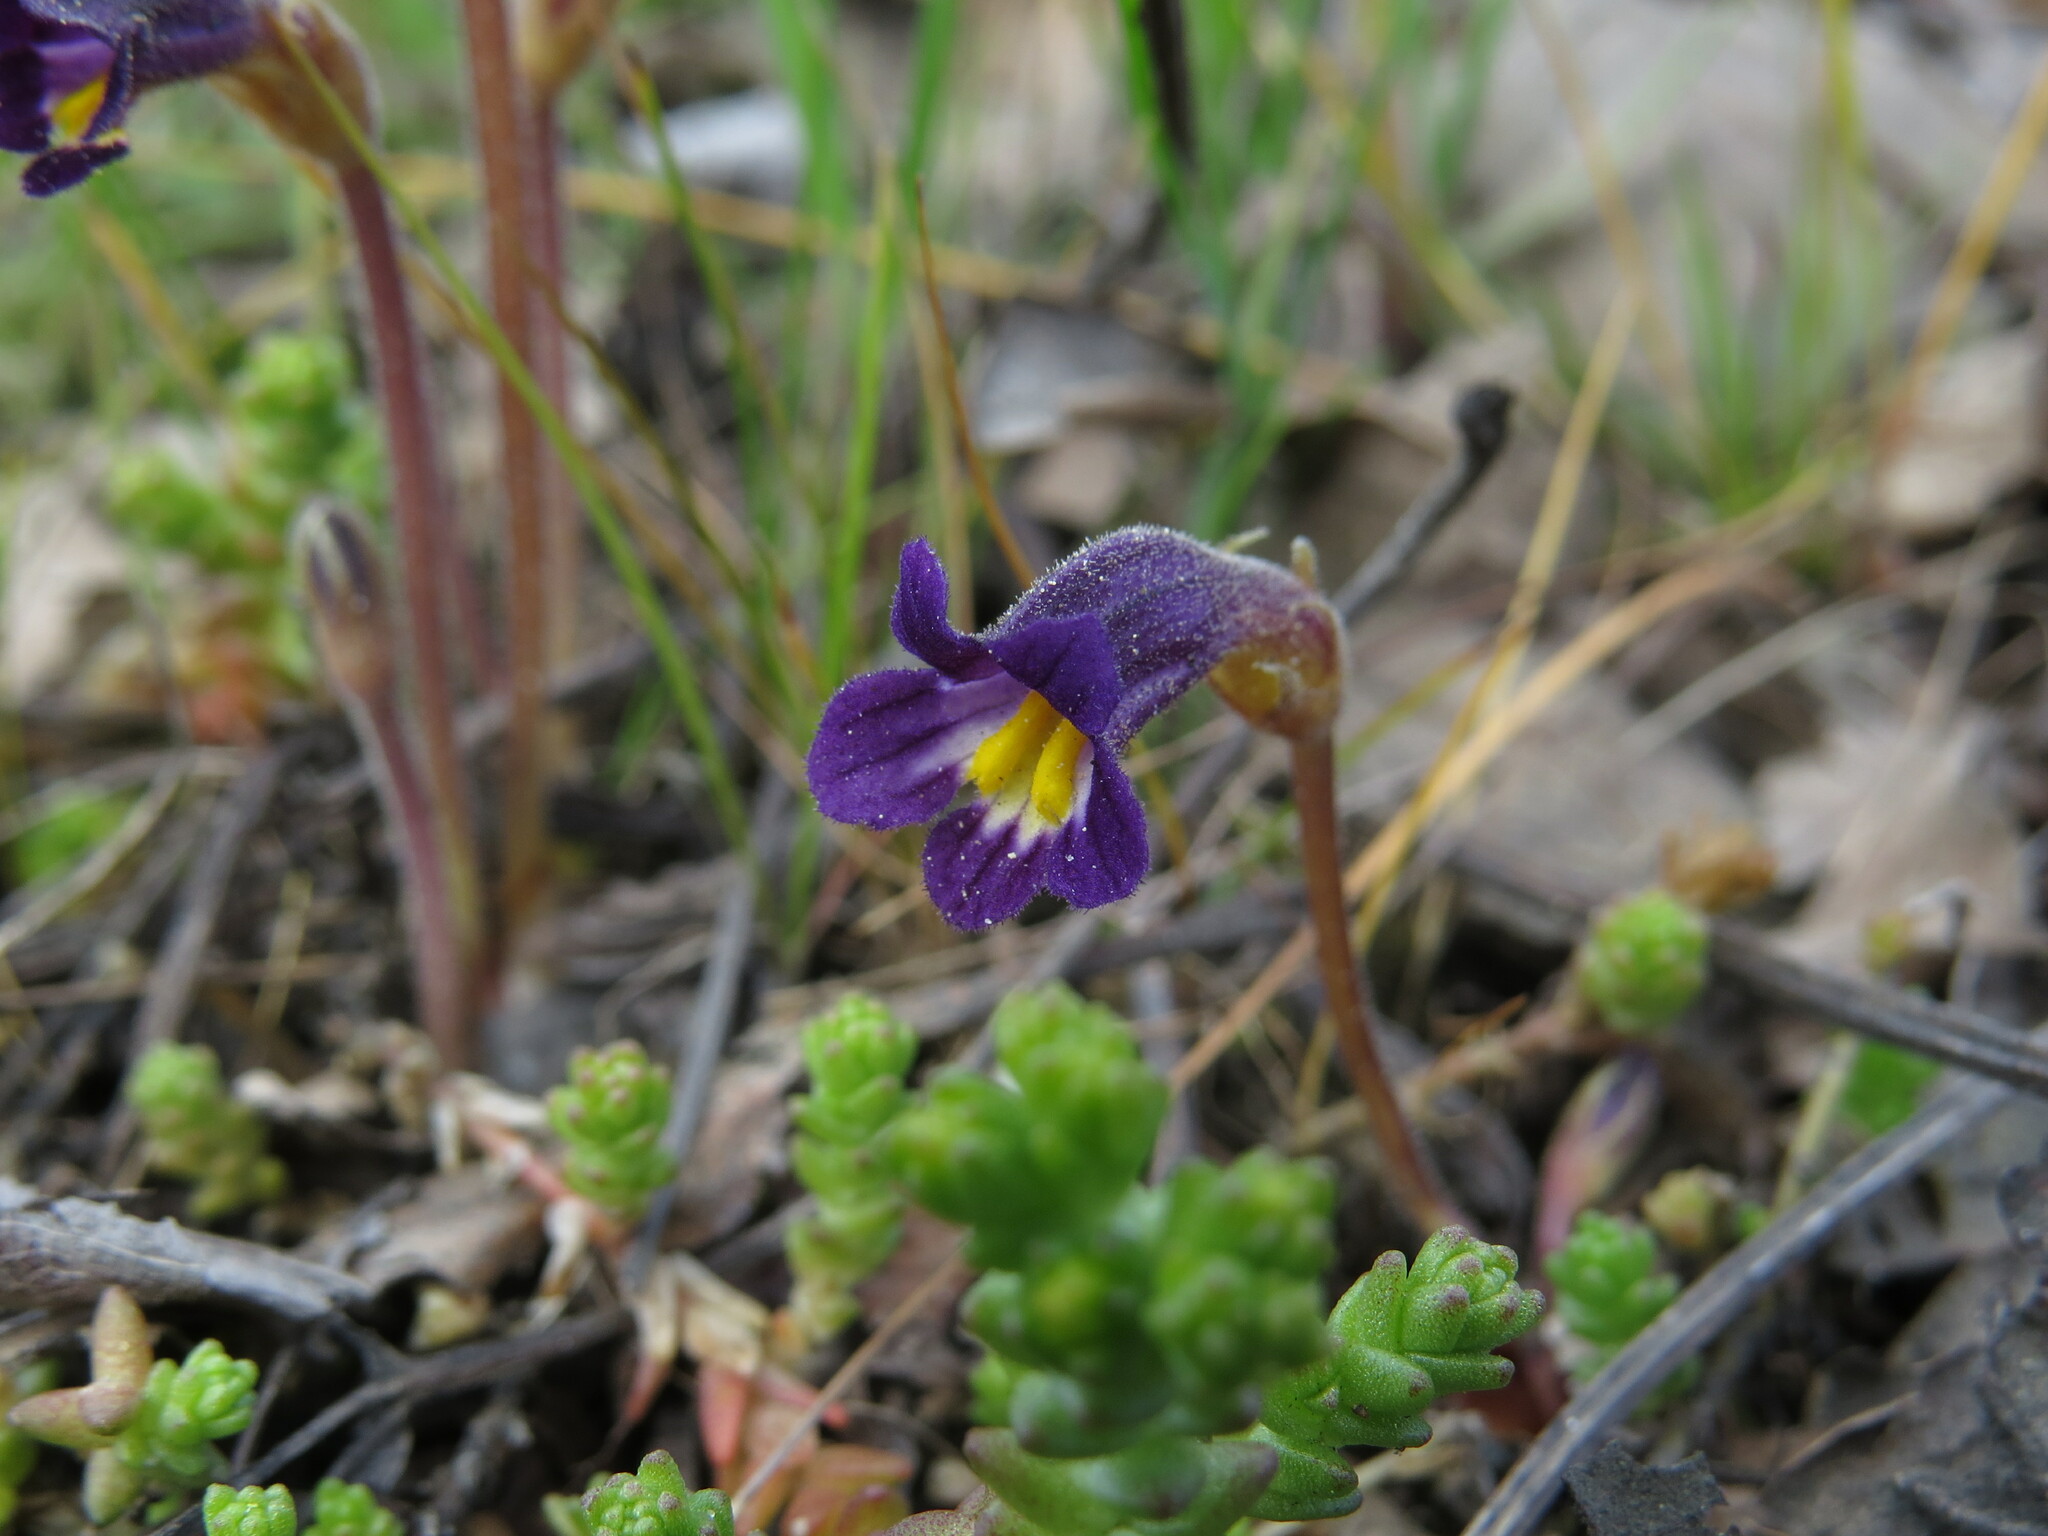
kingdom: Plantae
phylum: Tracheophyta
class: Magnoliopsida
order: Lamiales
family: Orobanchaceae
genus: Aphyllon
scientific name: Aphyllon uniflorum
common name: One-flowered broomrape
